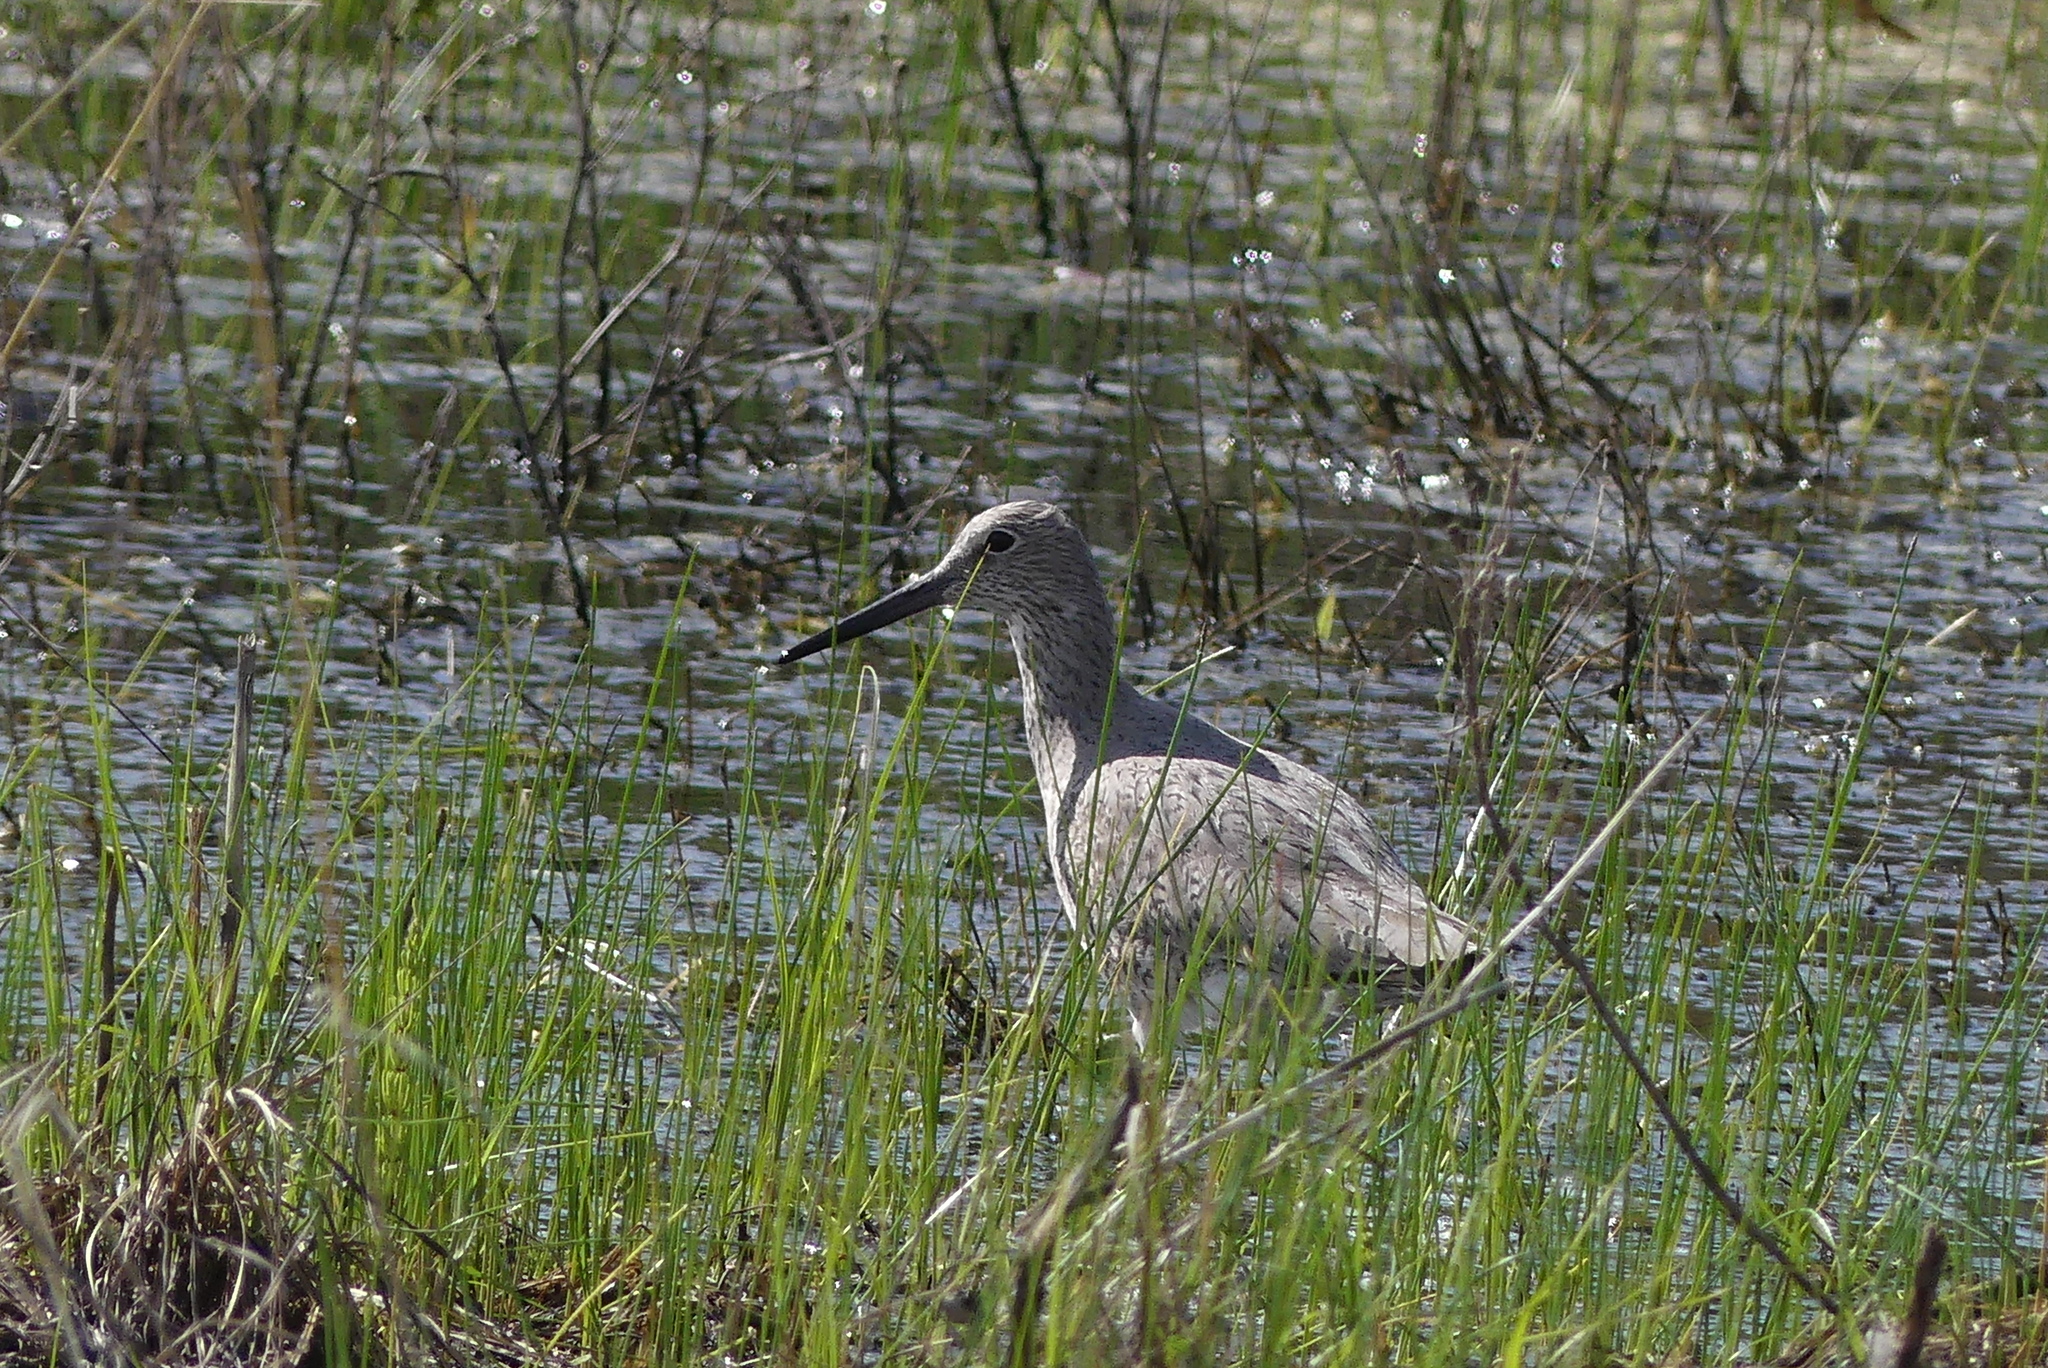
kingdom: Animalia
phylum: Chordata
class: Aves
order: Charadriiformes
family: Scolopacidae
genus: Tringa
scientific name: Tringa semipalmata
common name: Willet
